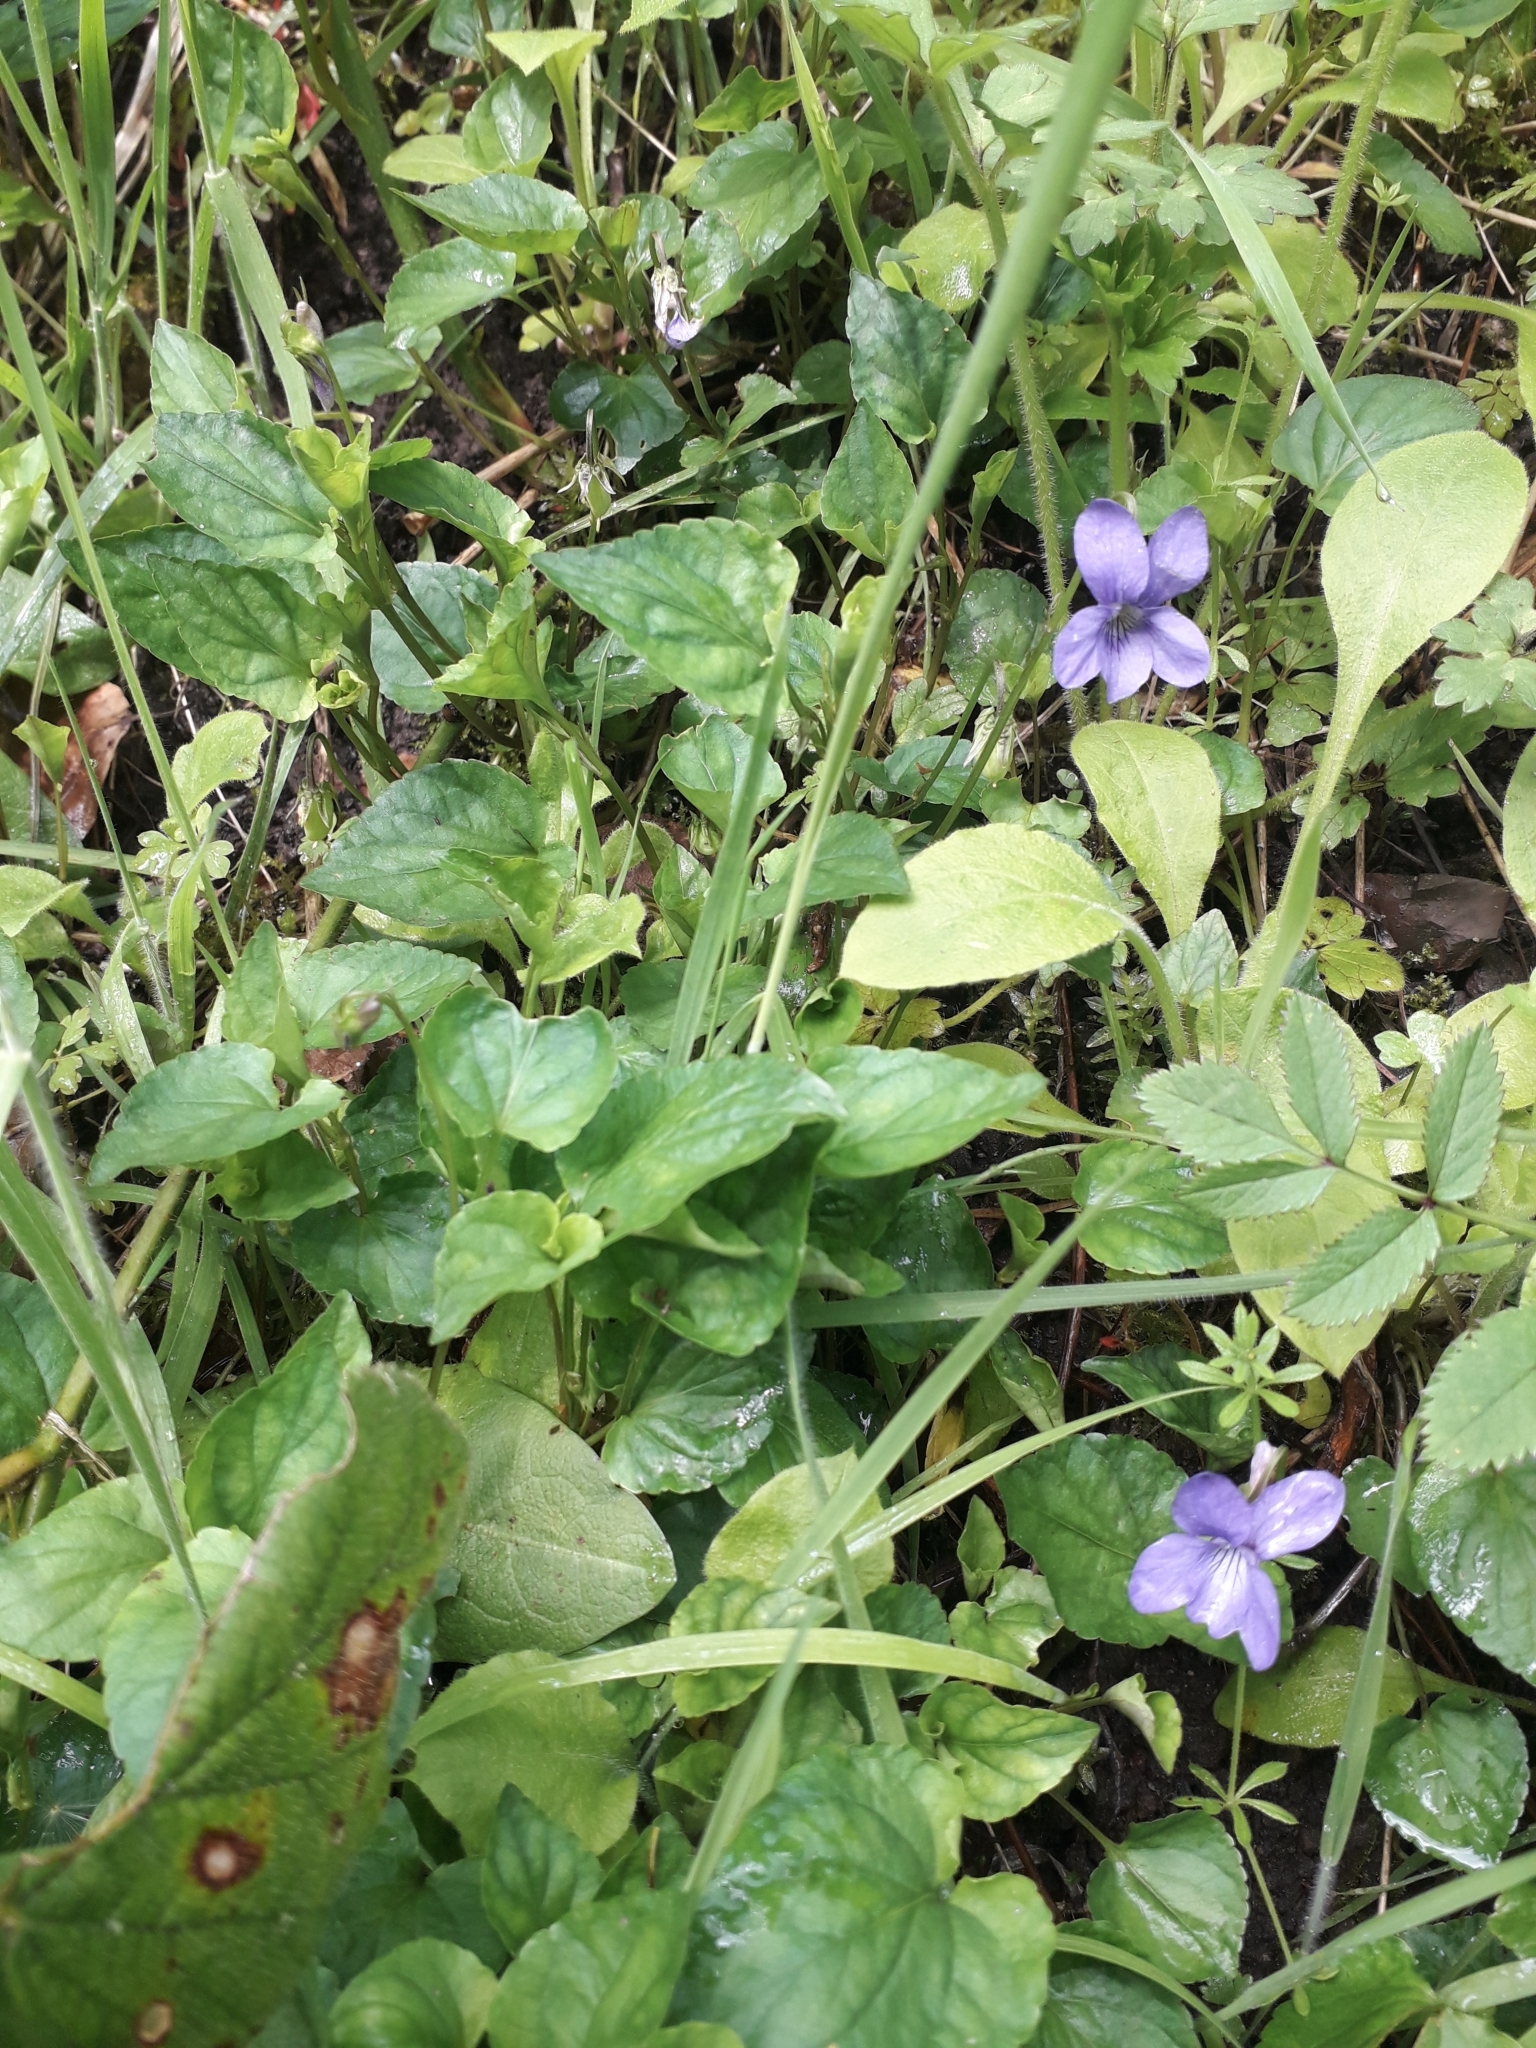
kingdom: Plantae
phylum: Tracheophyta
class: Magnoliopsida
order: Malpighiales
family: Violaceae
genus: Viola
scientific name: Viola riviniana
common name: Common dog-violet
